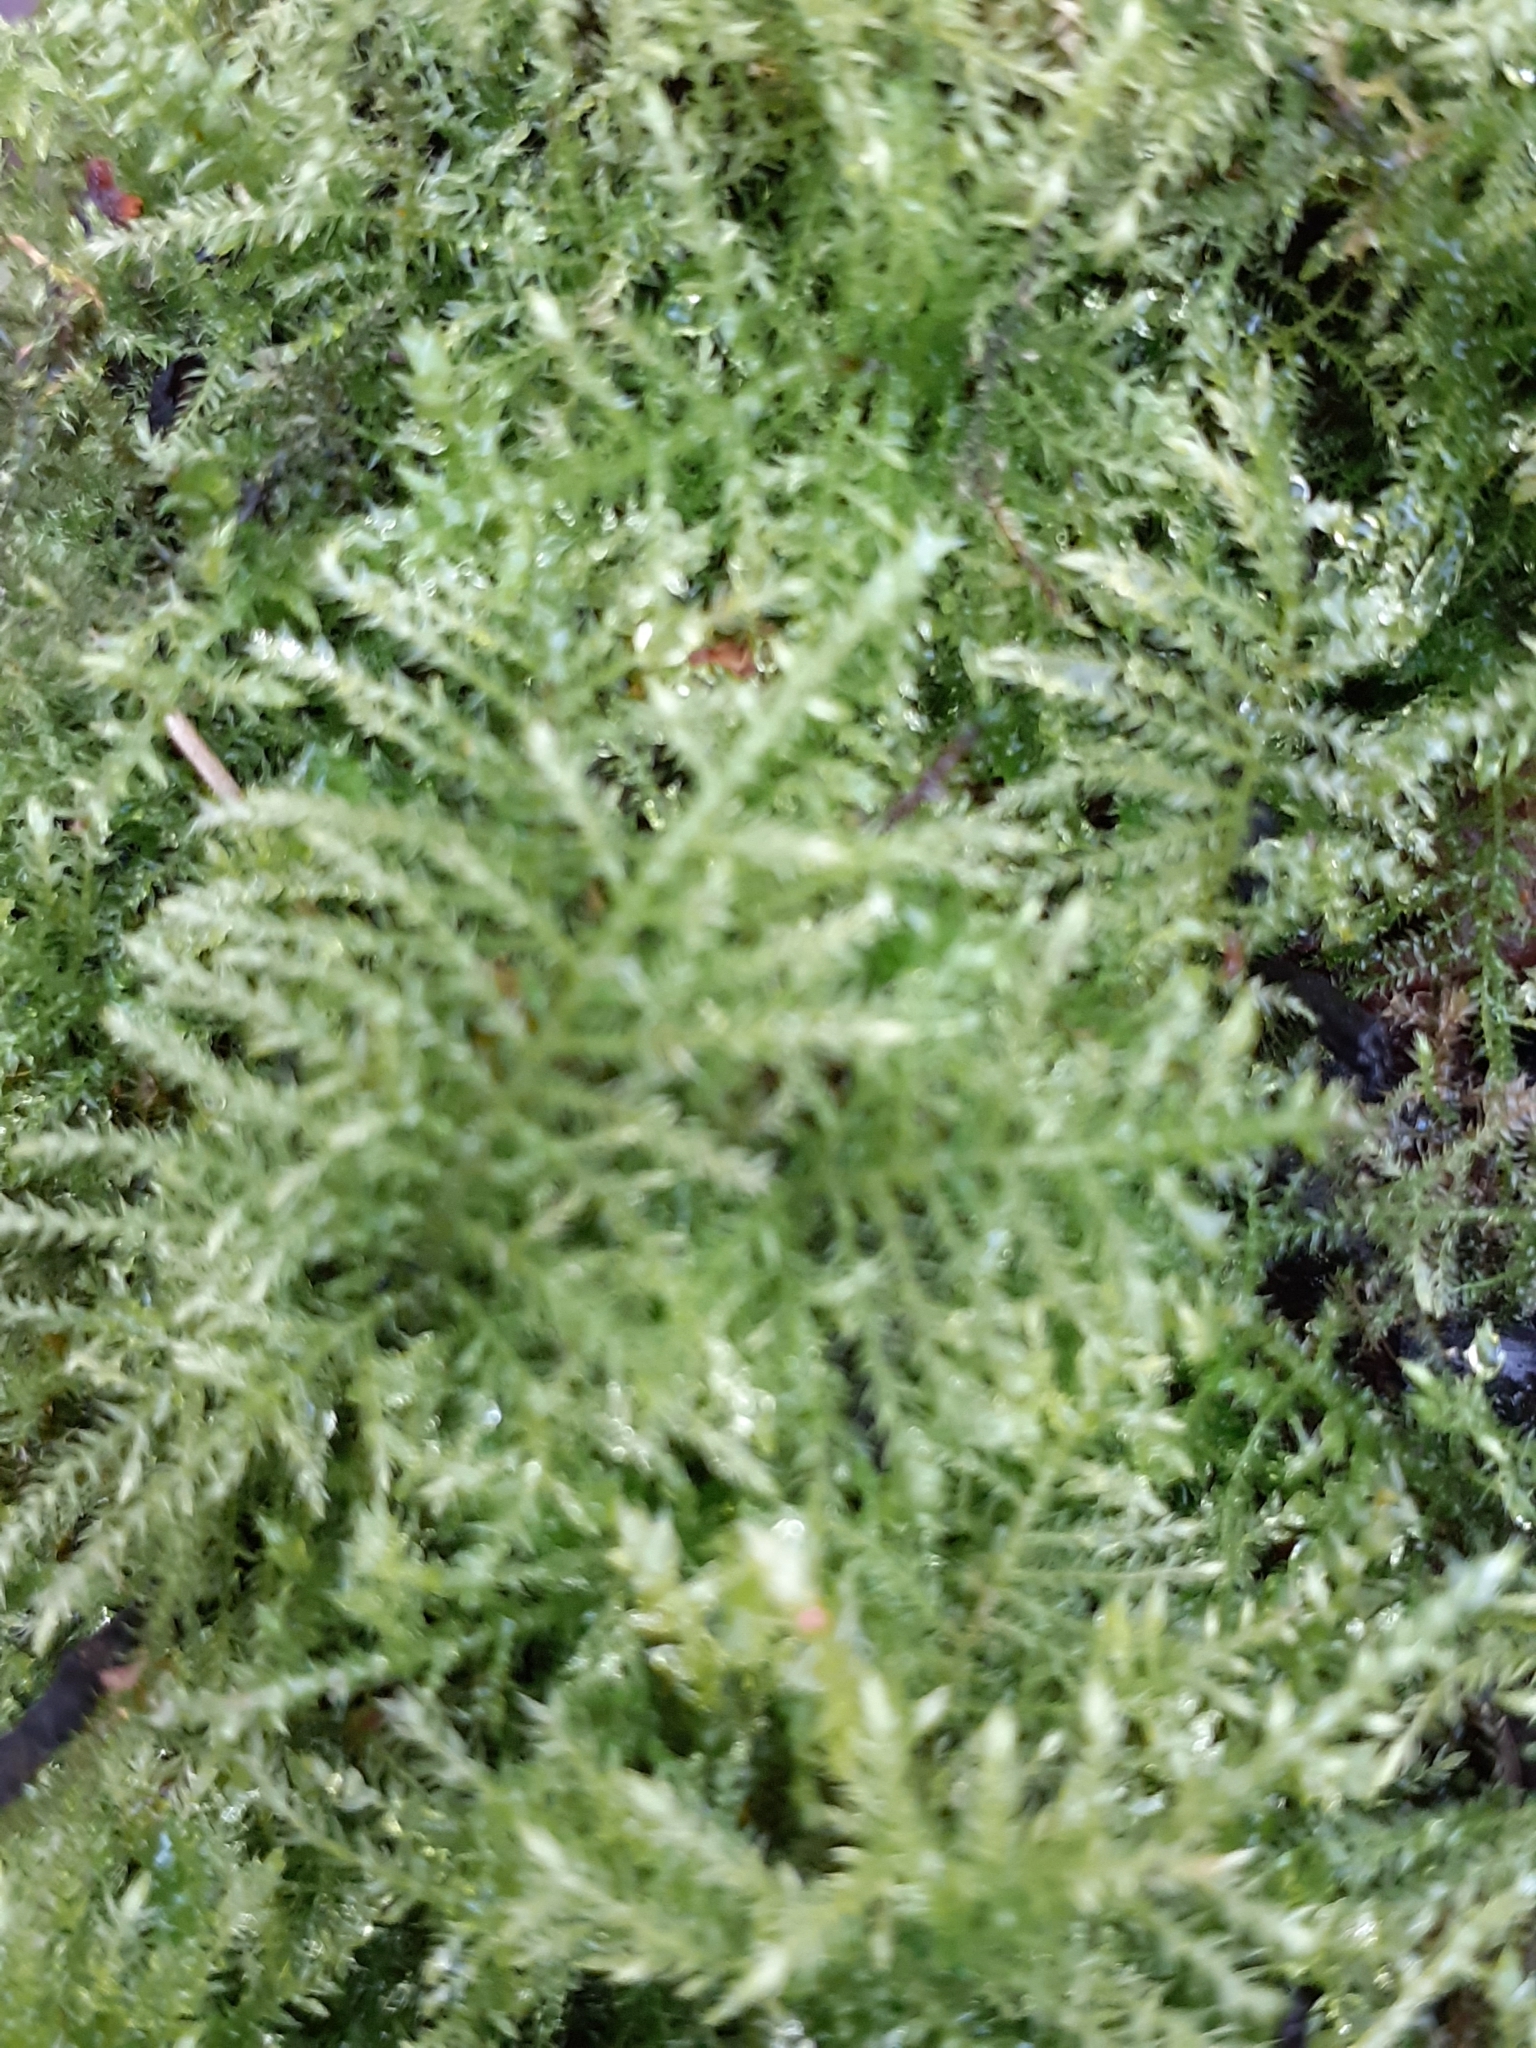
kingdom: Plantae
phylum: Bryophyta
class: Bryopsida
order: Hypnales
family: Brachytheciaceae
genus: Kindbergia
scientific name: Kindbergia praelonga
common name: Slender beaked moss
